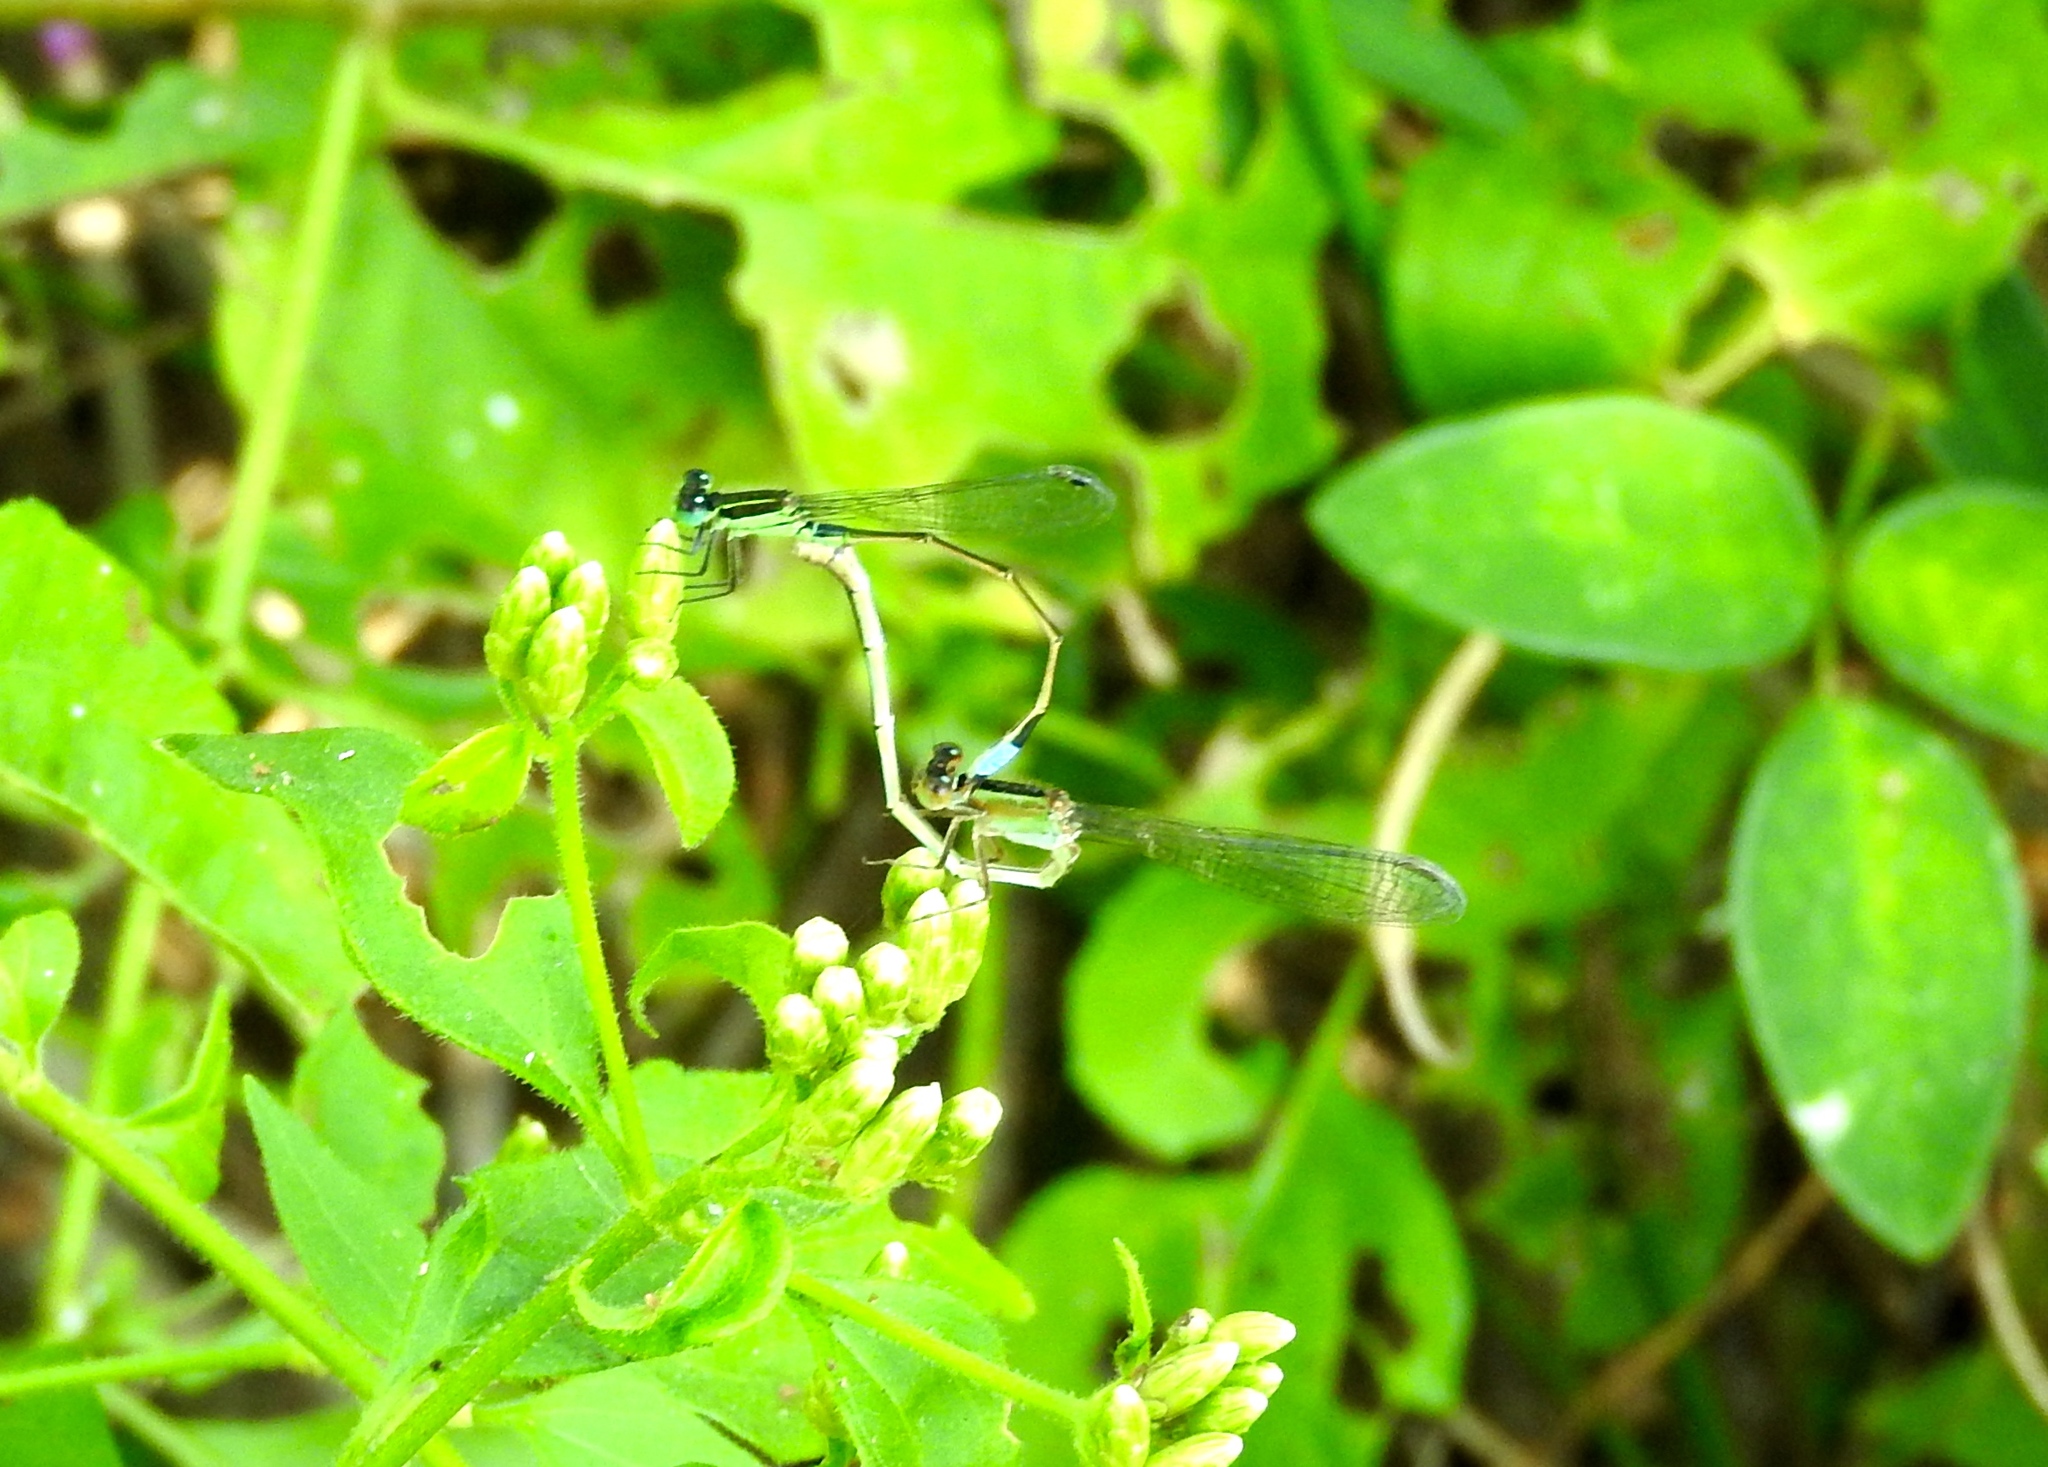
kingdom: Animalia
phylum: Arthropoda
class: Insecta
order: Odonata
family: Coenagrionidae
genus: Ischnura
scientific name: Ischnura ramburii
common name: Rambur's forktail
